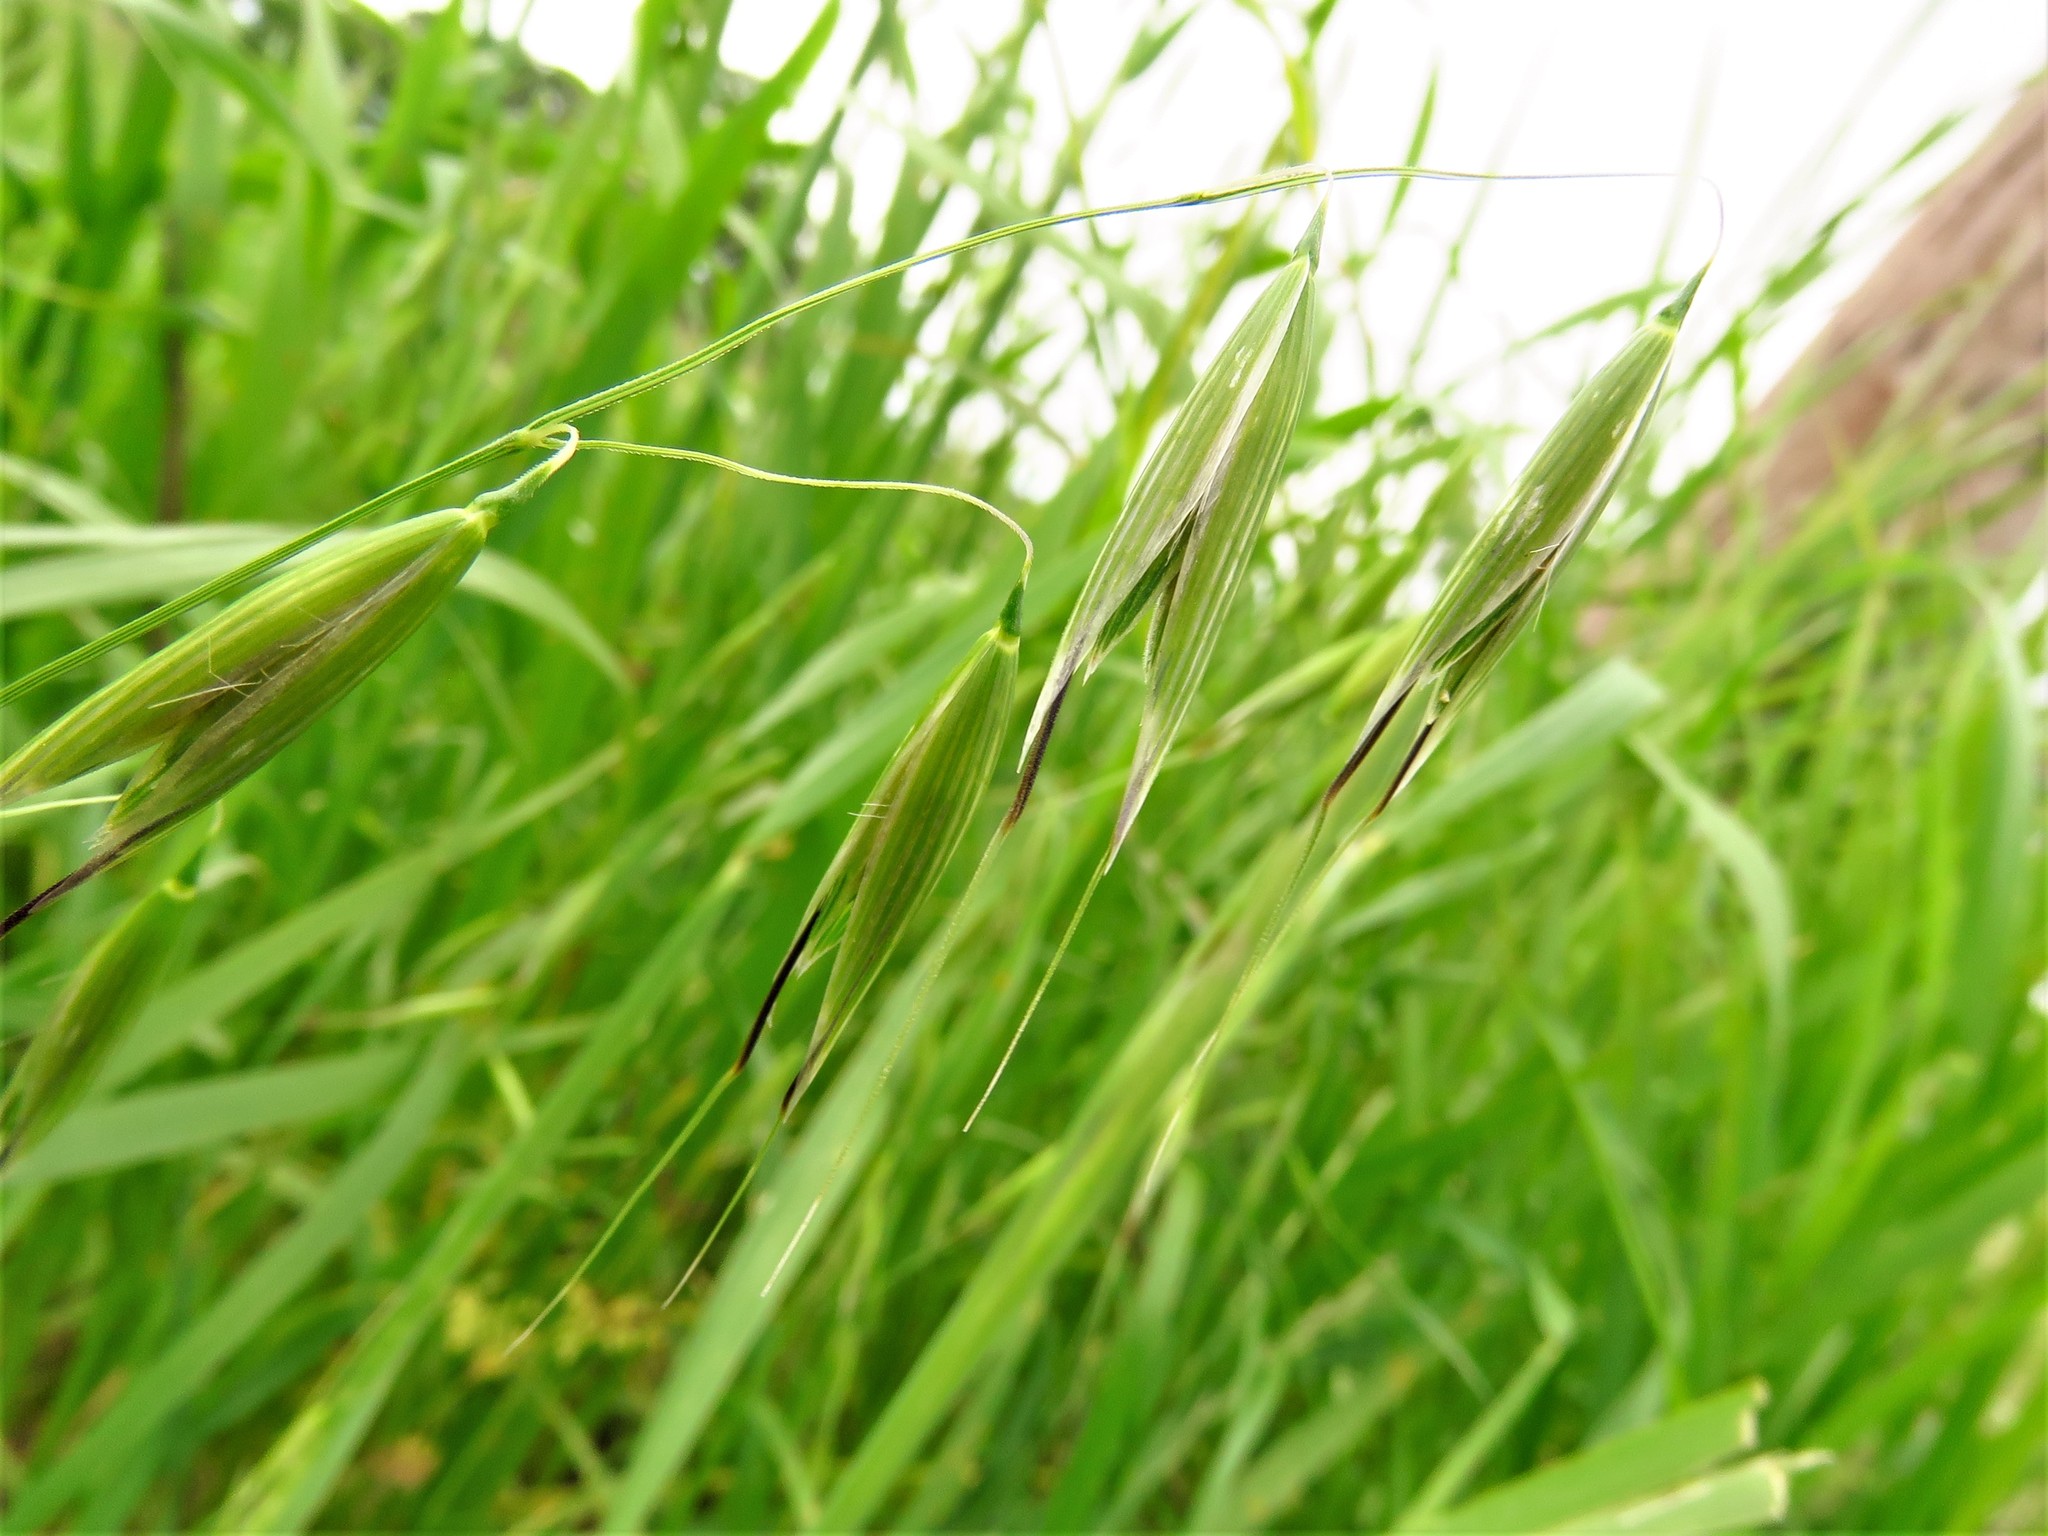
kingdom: Plantae
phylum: Tracheophyta
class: Liliopsida
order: Poales
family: Poaceae
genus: Avena
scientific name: Avena fatua
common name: Wild oat
